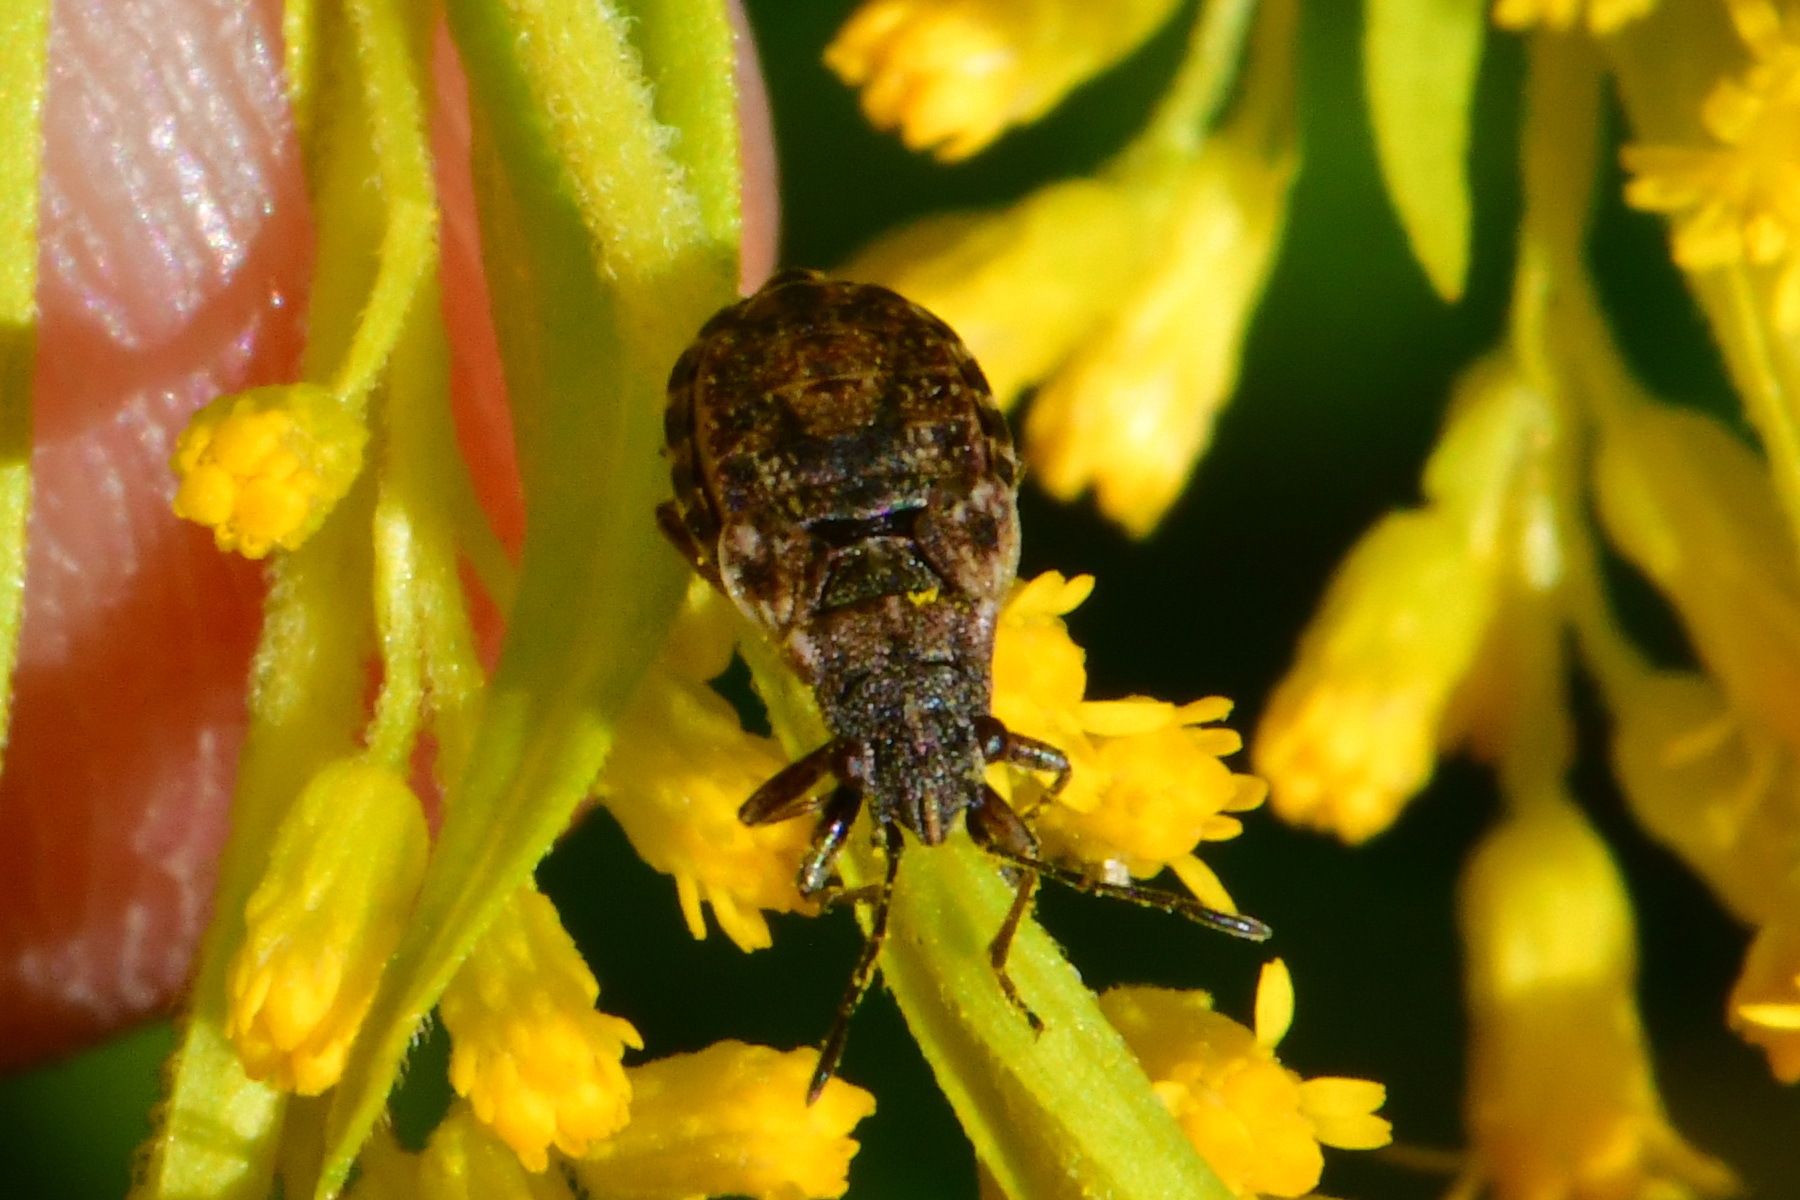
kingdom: Animalia
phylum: Arthropoda
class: Insecta
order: Hemiptera
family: Lygaeidae
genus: Nithecus
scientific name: Nithecus jacobaeae
